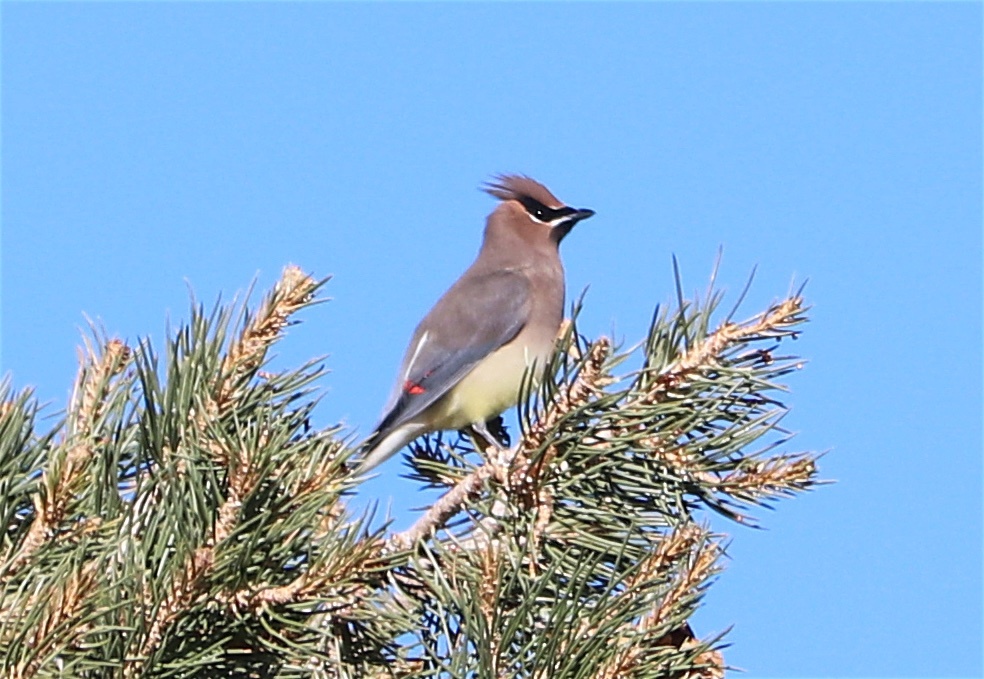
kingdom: Animalia
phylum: Chordata
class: Aves
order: Passeriformes
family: Bombycillidae
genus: Bombycilla
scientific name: Bombycilla cedrorum
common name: Cedar waxwing
